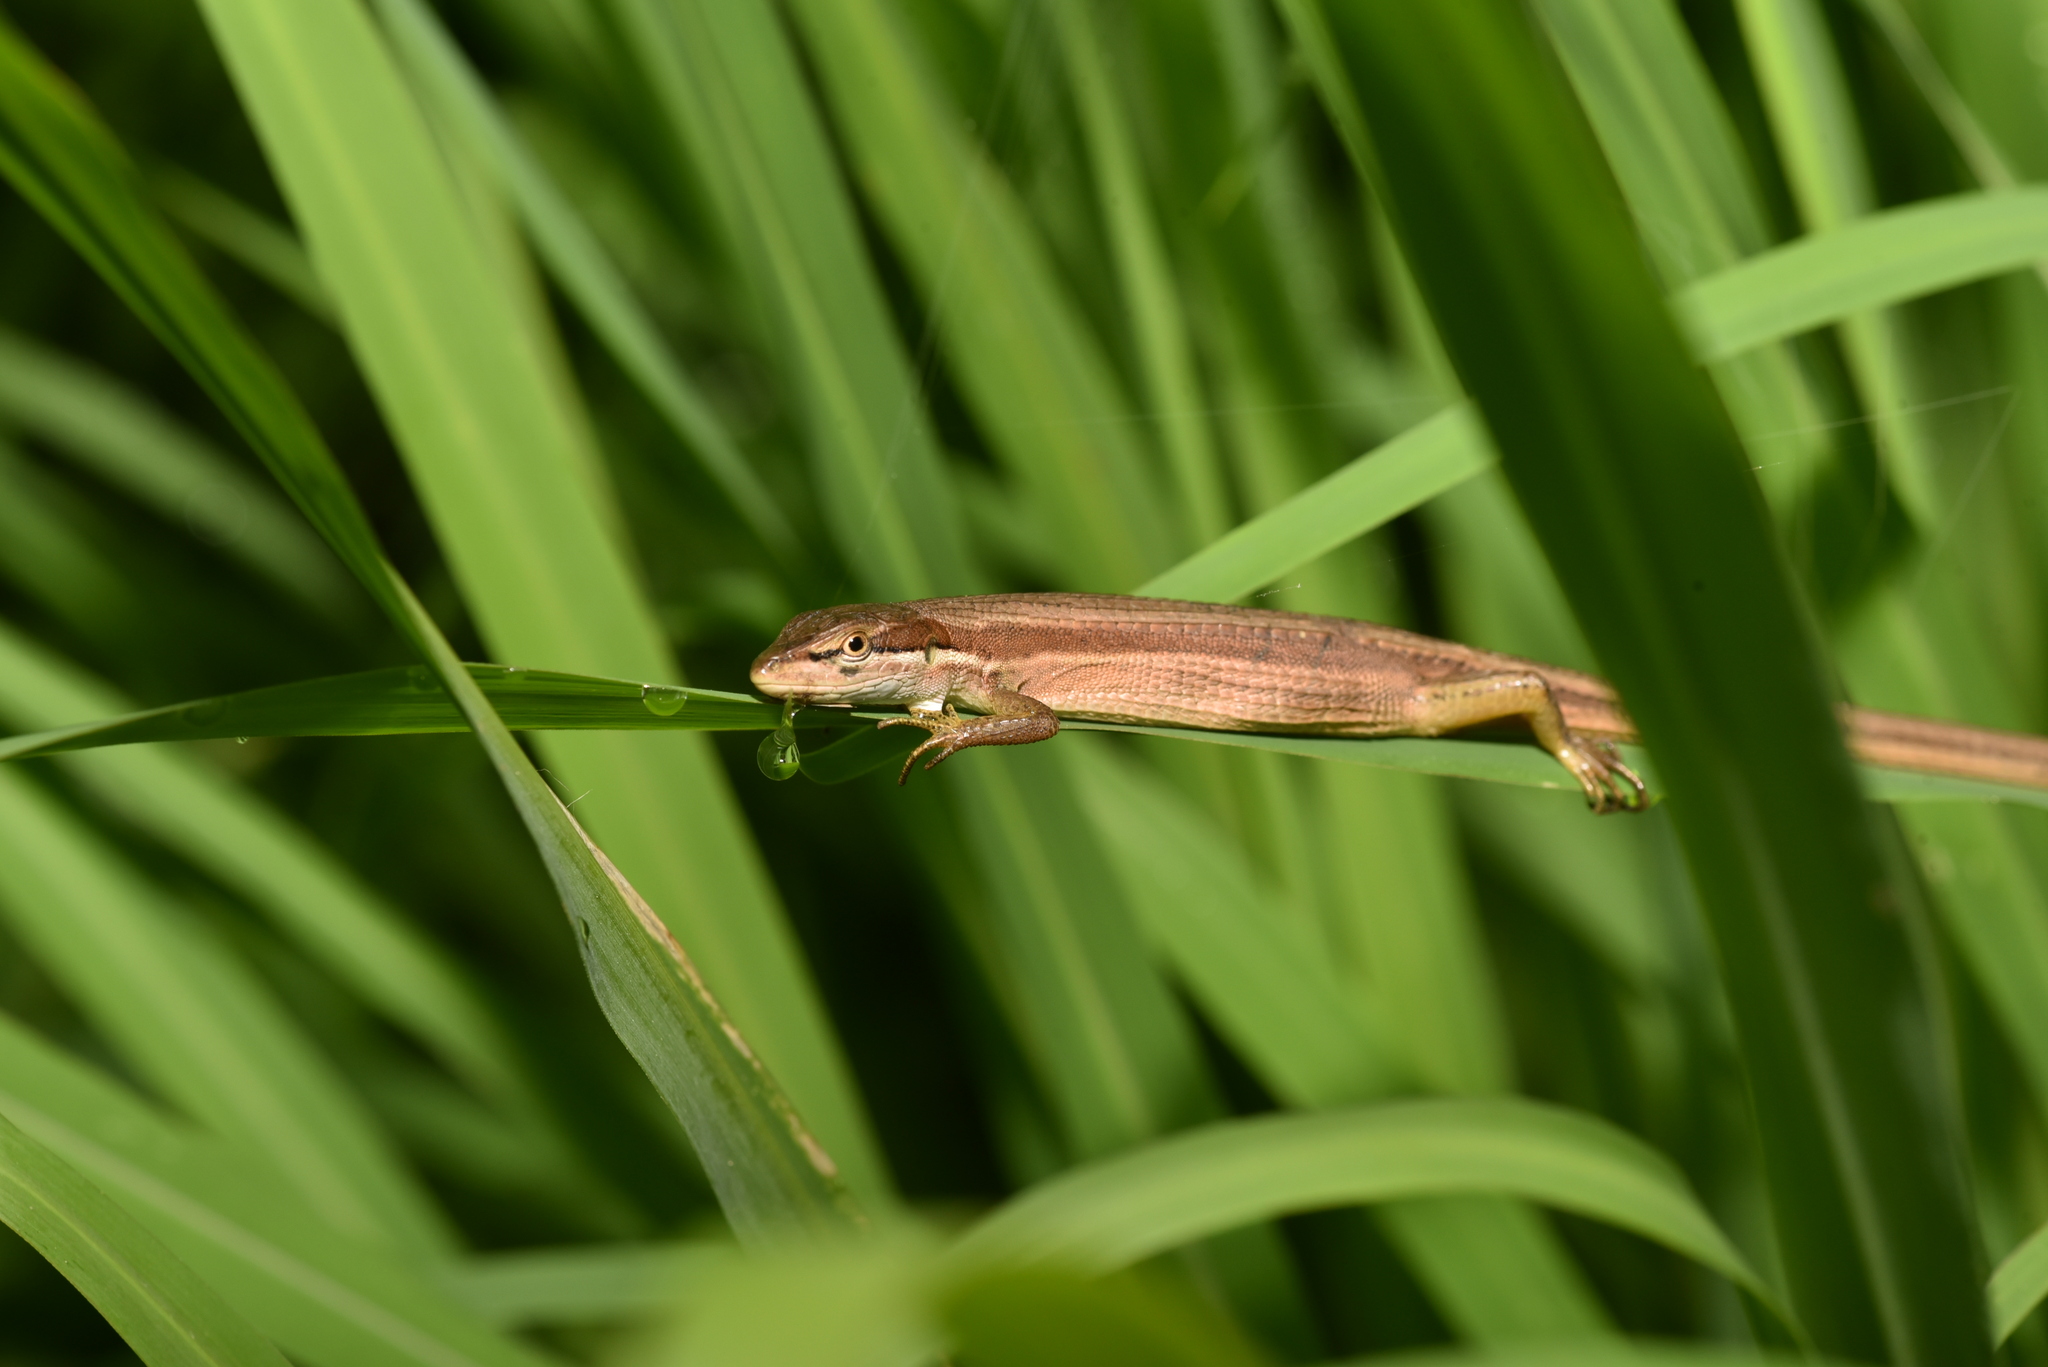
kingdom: Animalia
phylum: Chordata
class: Squamata
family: Lacertidae
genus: Takydromus
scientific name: Takydromus luyeanus
